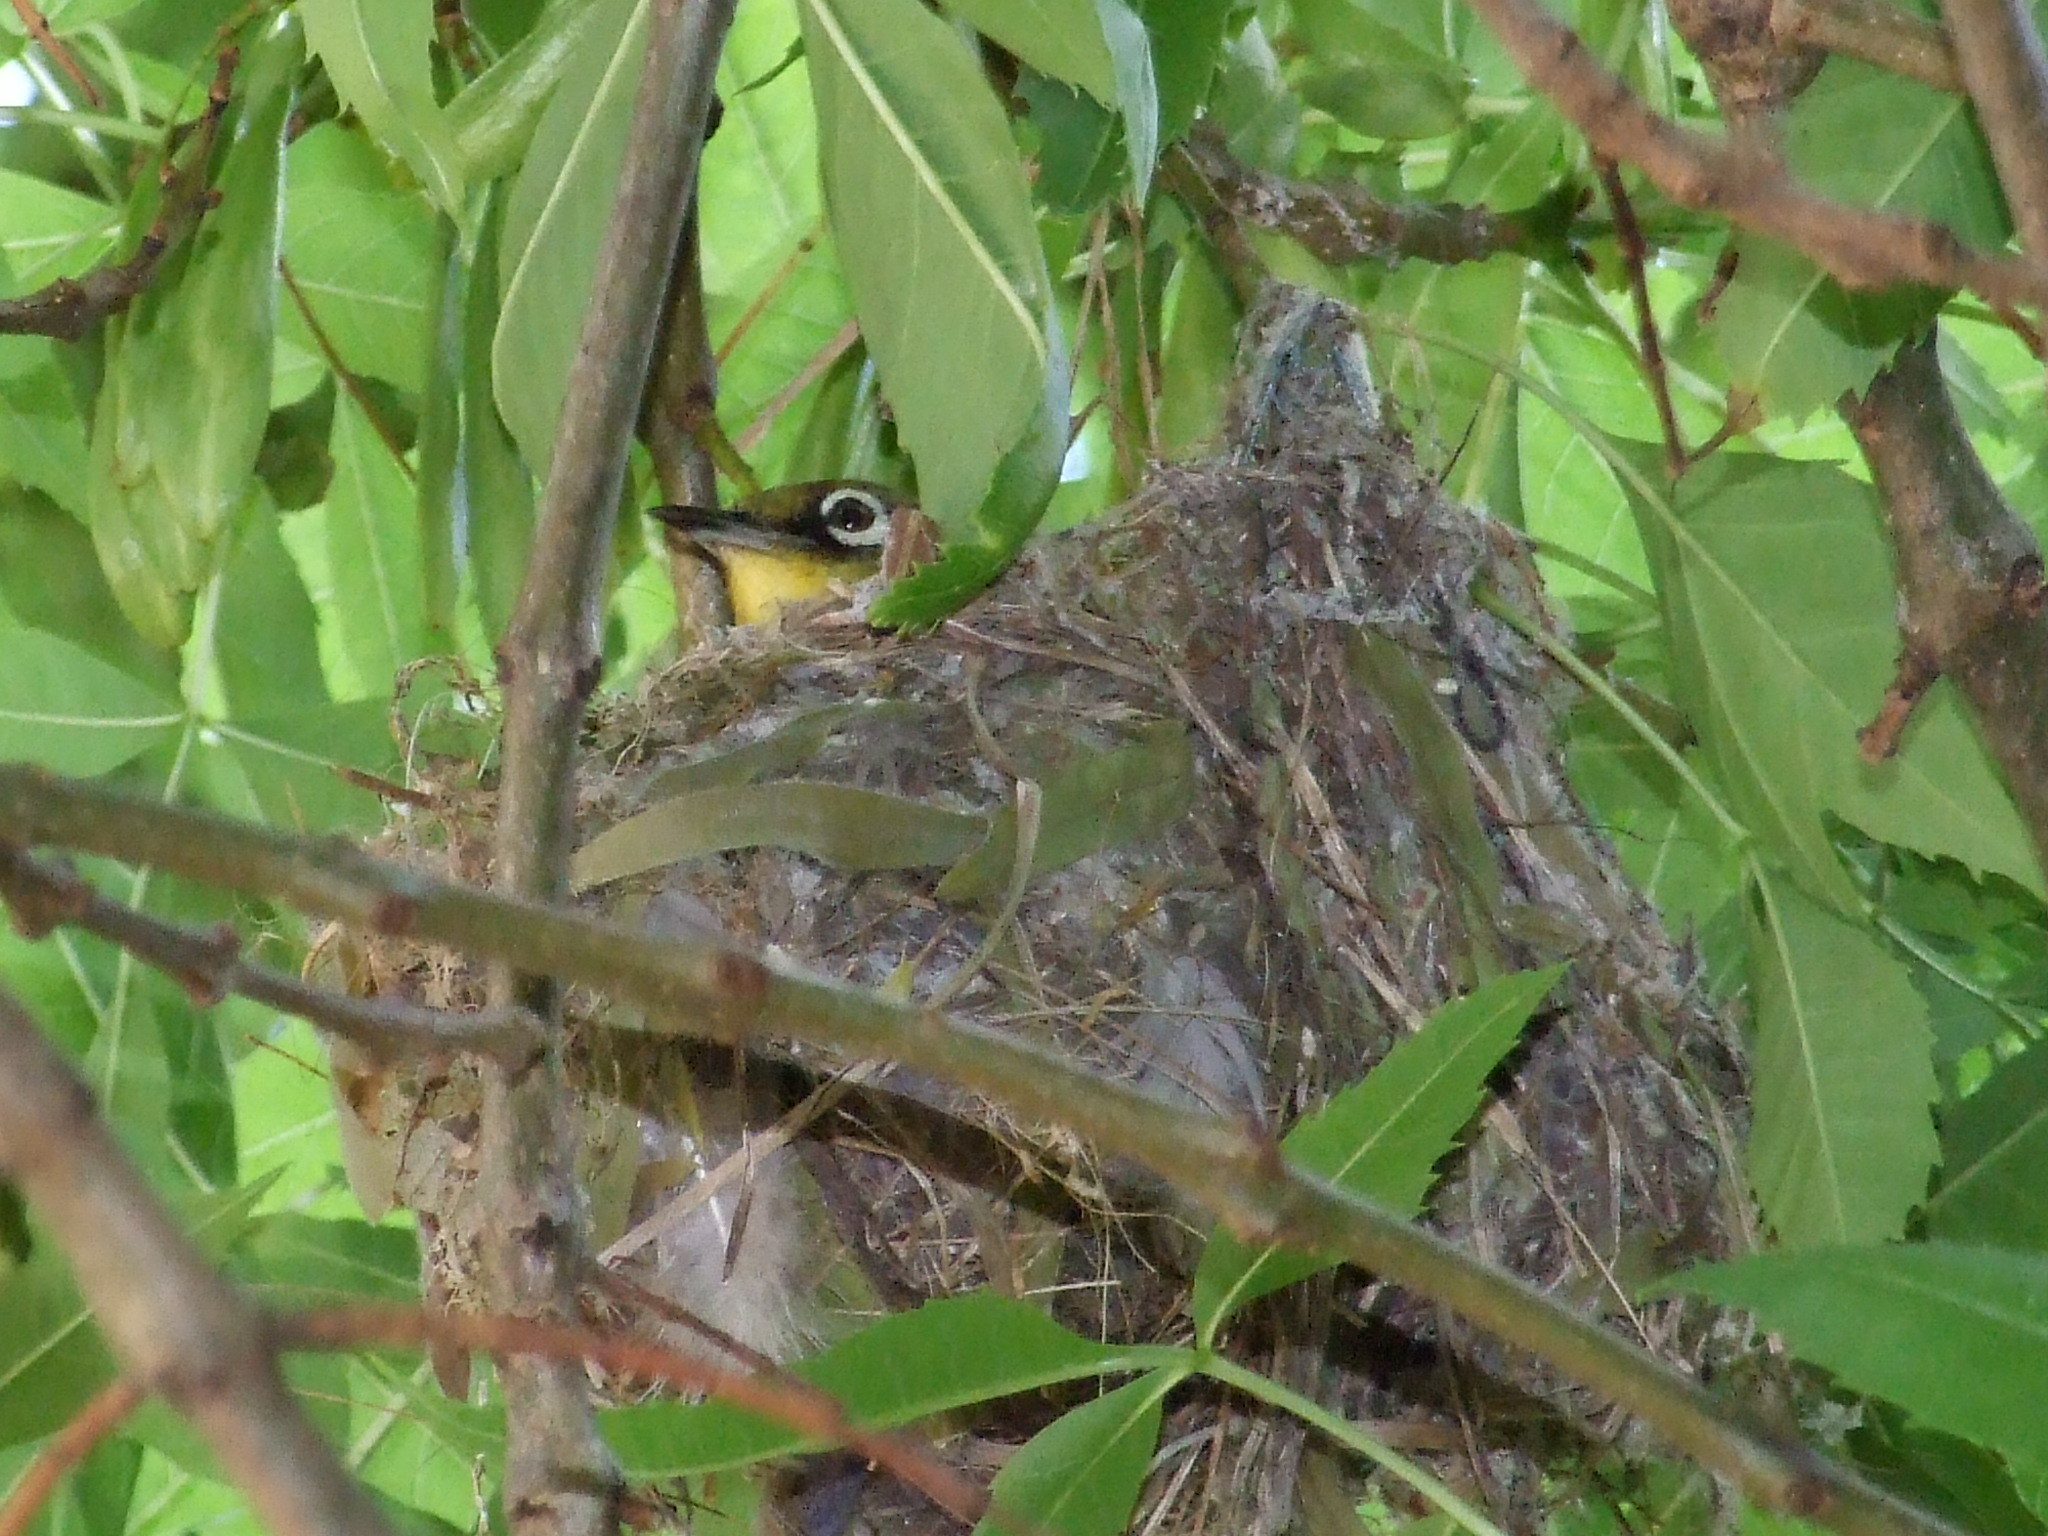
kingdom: Animalia
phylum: Chordata
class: Aves
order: Passeriformes
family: Zosteropidae
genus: Zosterops
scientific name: Zosterops virens
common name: Cape white-eye
